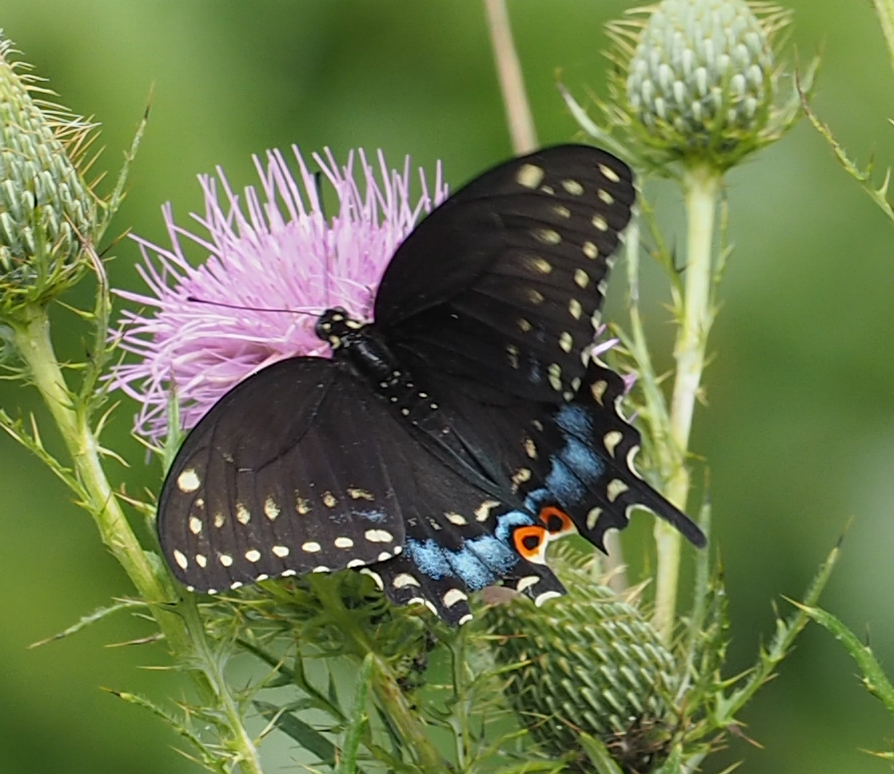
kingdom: Animalia
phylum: Arthropoda
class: Insecta
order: Lepidoptera
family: Papilionidae
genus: Papilio
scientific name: Papilio polyxenes
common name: Black swallowtail
